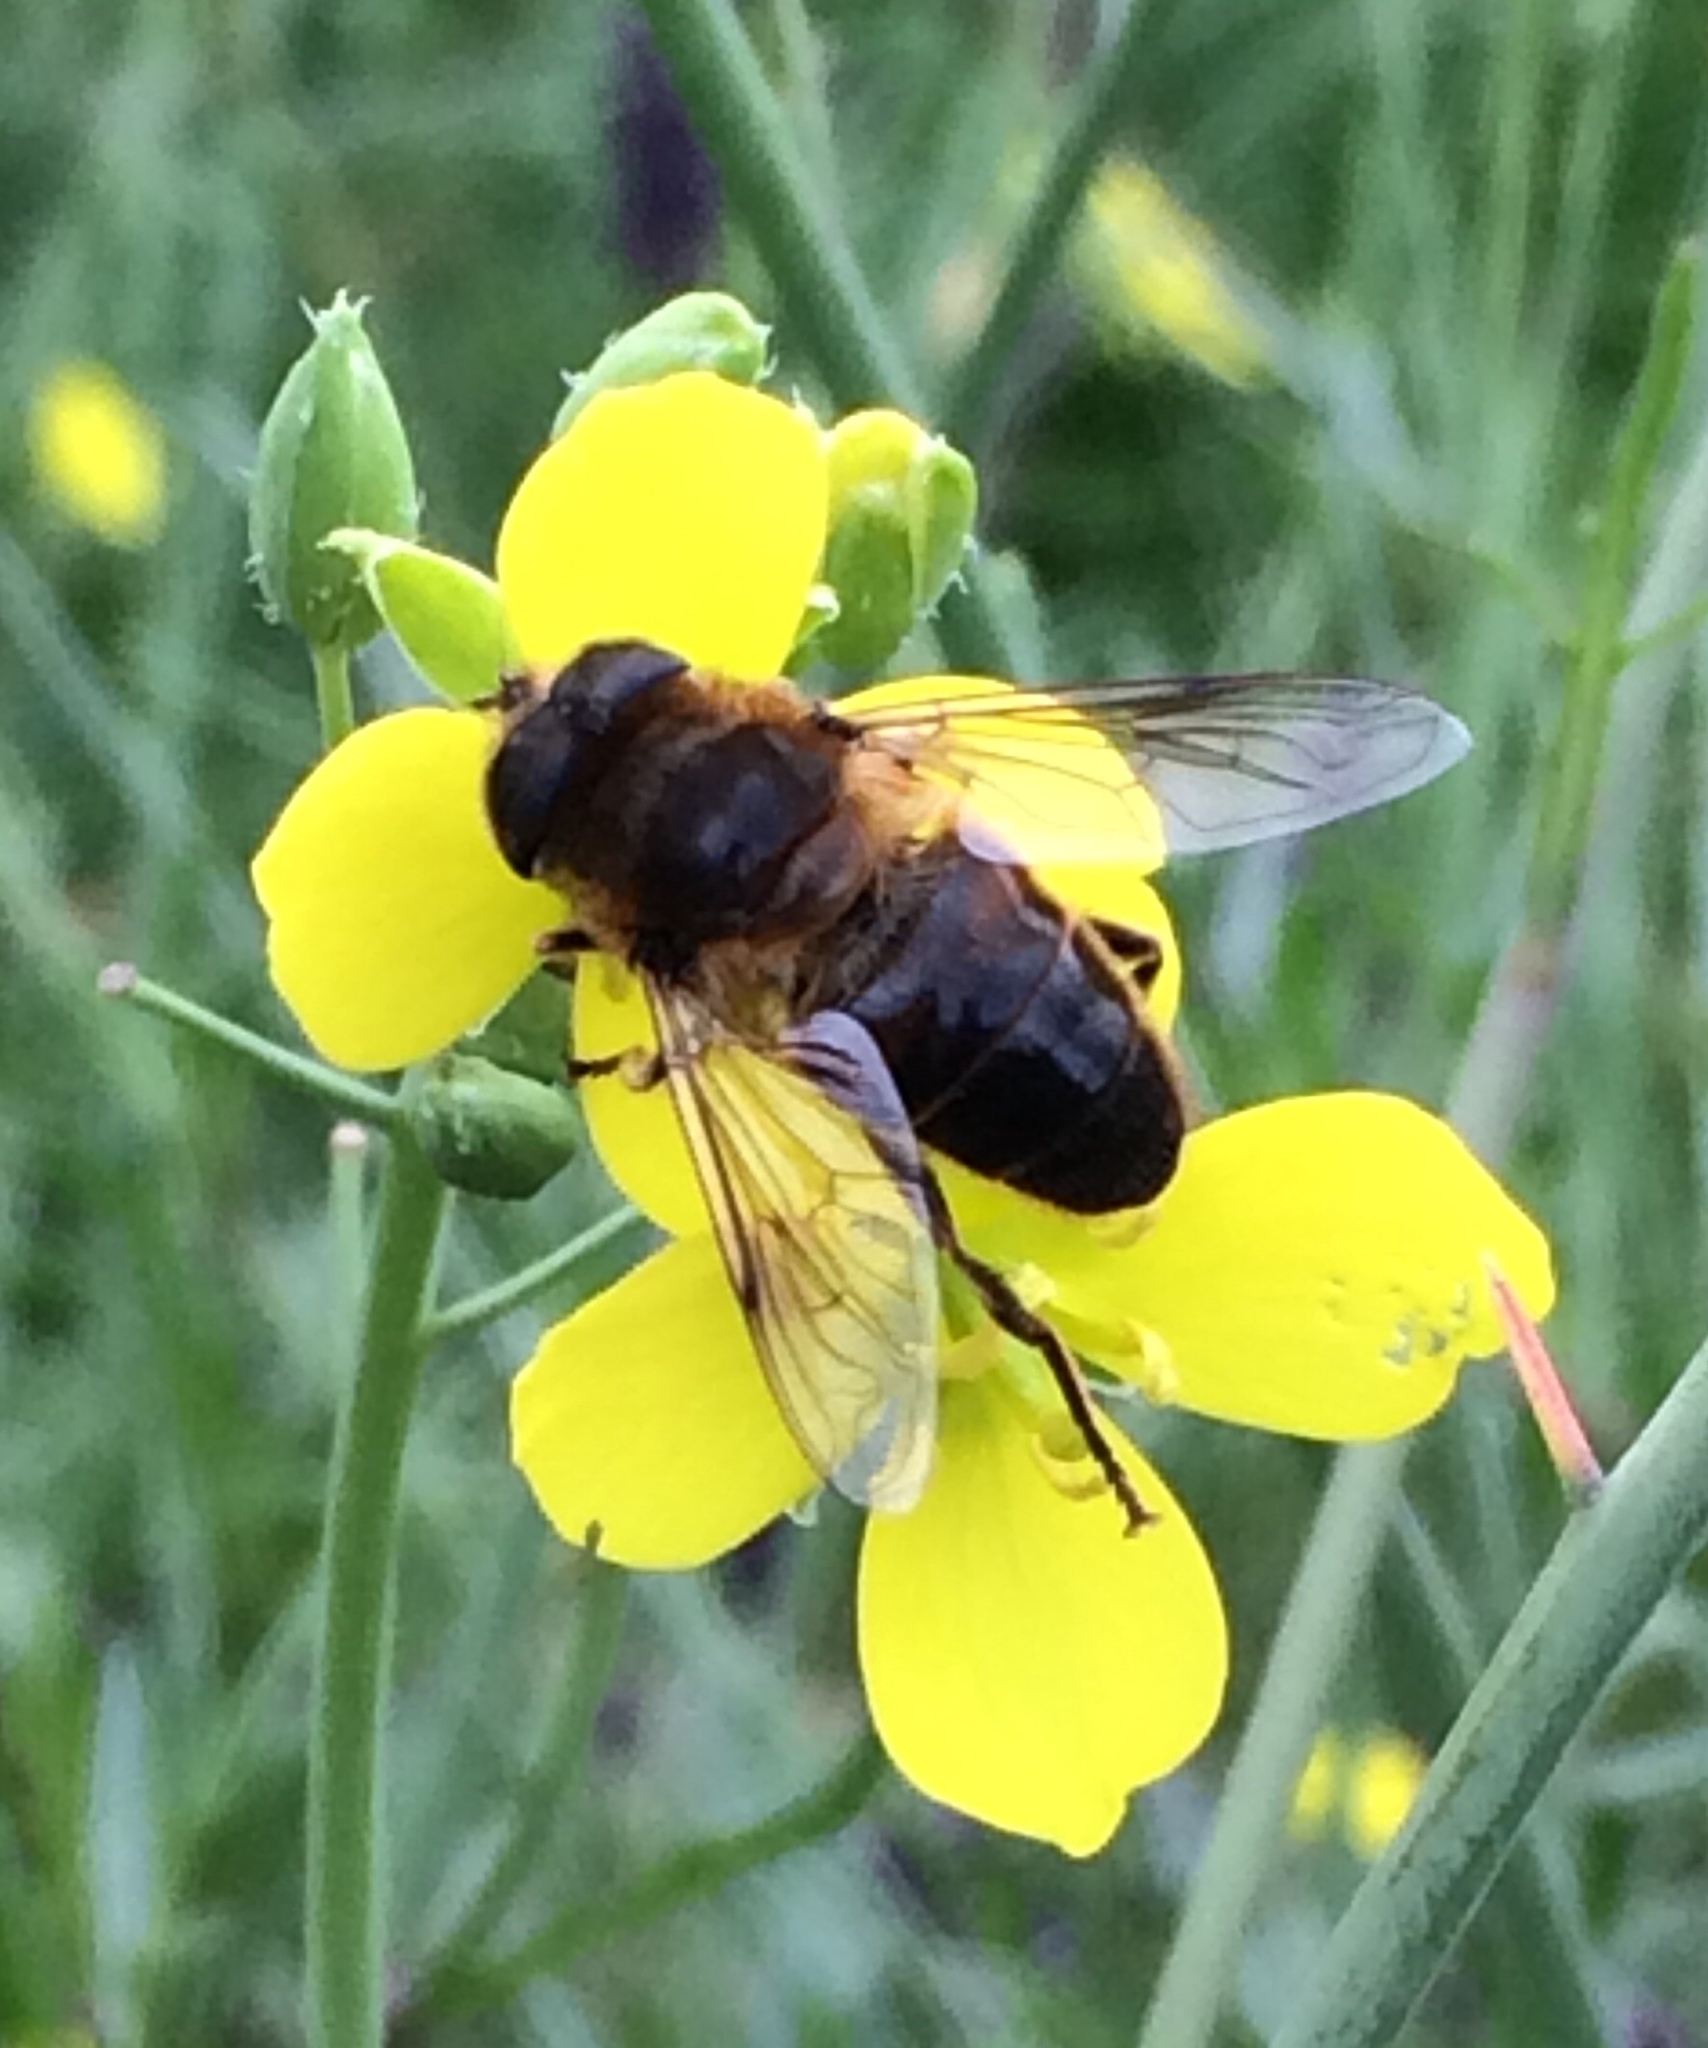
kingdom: Animalia
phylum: Arthropoda
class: Insecta
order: Diptera
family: Syrphidae
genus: Eristalis
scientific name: Eristalis tenax
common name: Drone fly
